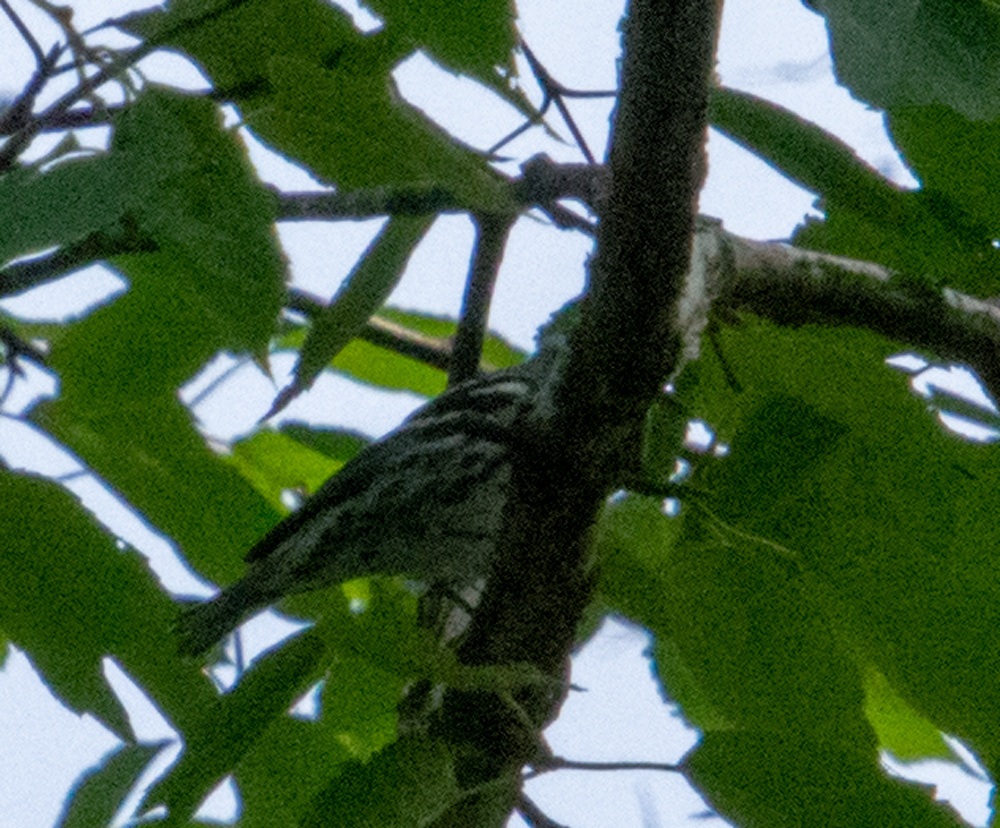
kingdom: Animalia
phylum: Chordata
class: Aves
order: Passeriformes
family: Parulidae
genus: Mniotilta
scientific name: Mniotilta varia
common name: Black-and-white warbler
